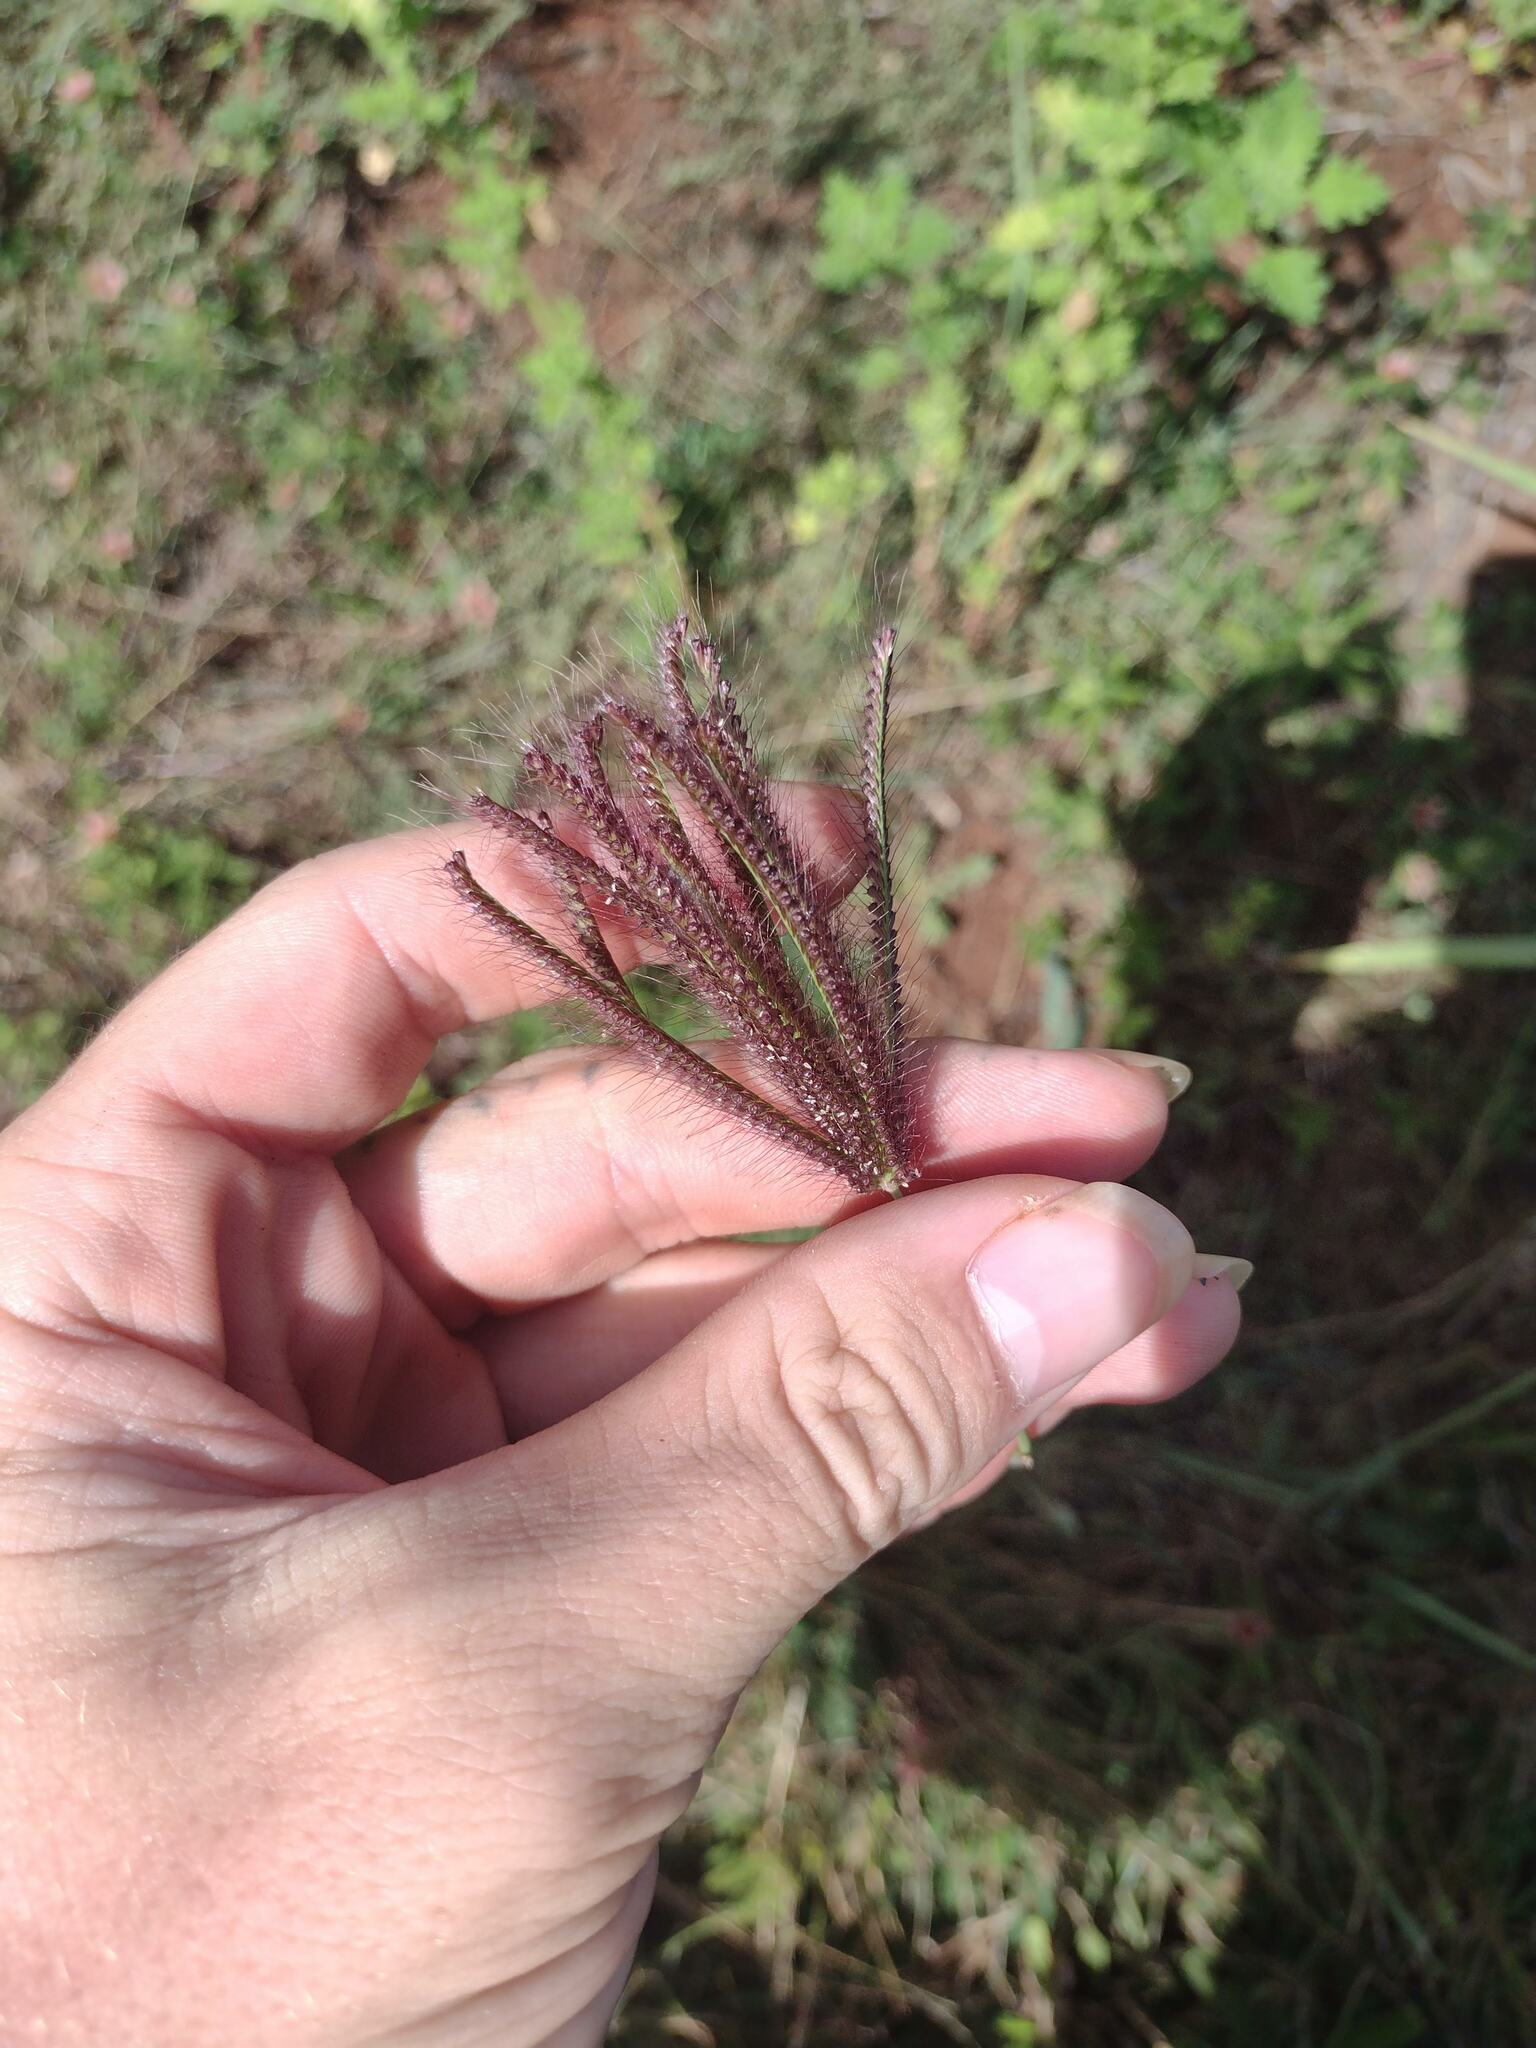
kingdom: Plantae
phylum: Tracheophyta
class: Liliopsida
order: Poales
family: Poaceae
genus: Chloris
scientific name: Chloris barbata
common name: Swollen fingergrass
